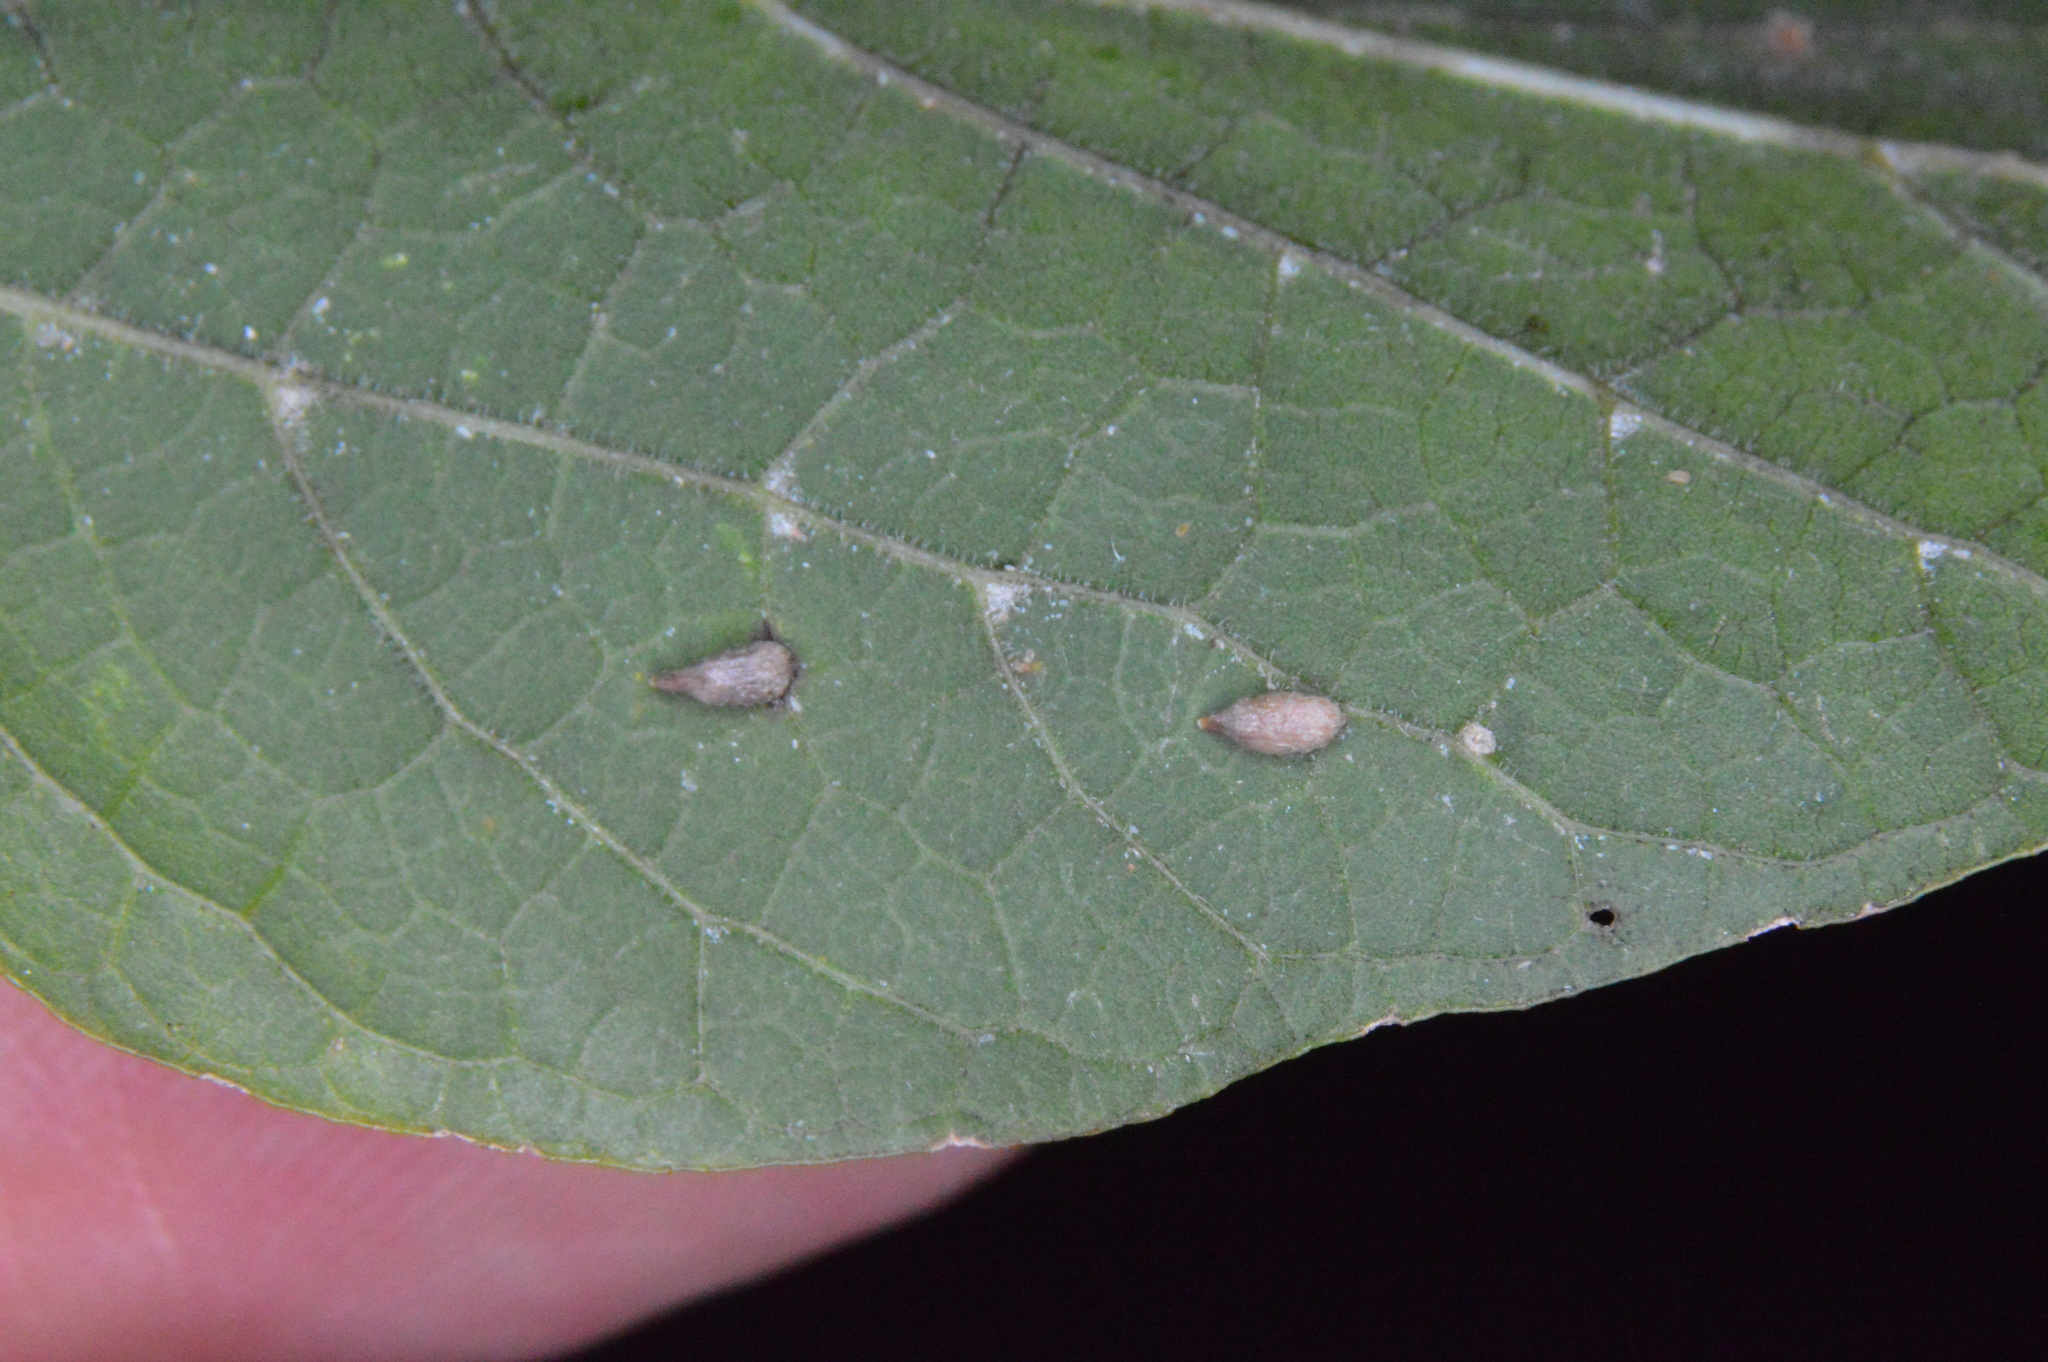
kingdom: Animalia
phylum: Arthropoda
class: Insecta
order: Diptera
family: Cecidomyiidae
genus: Celticecis
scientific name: Celticecis supina
